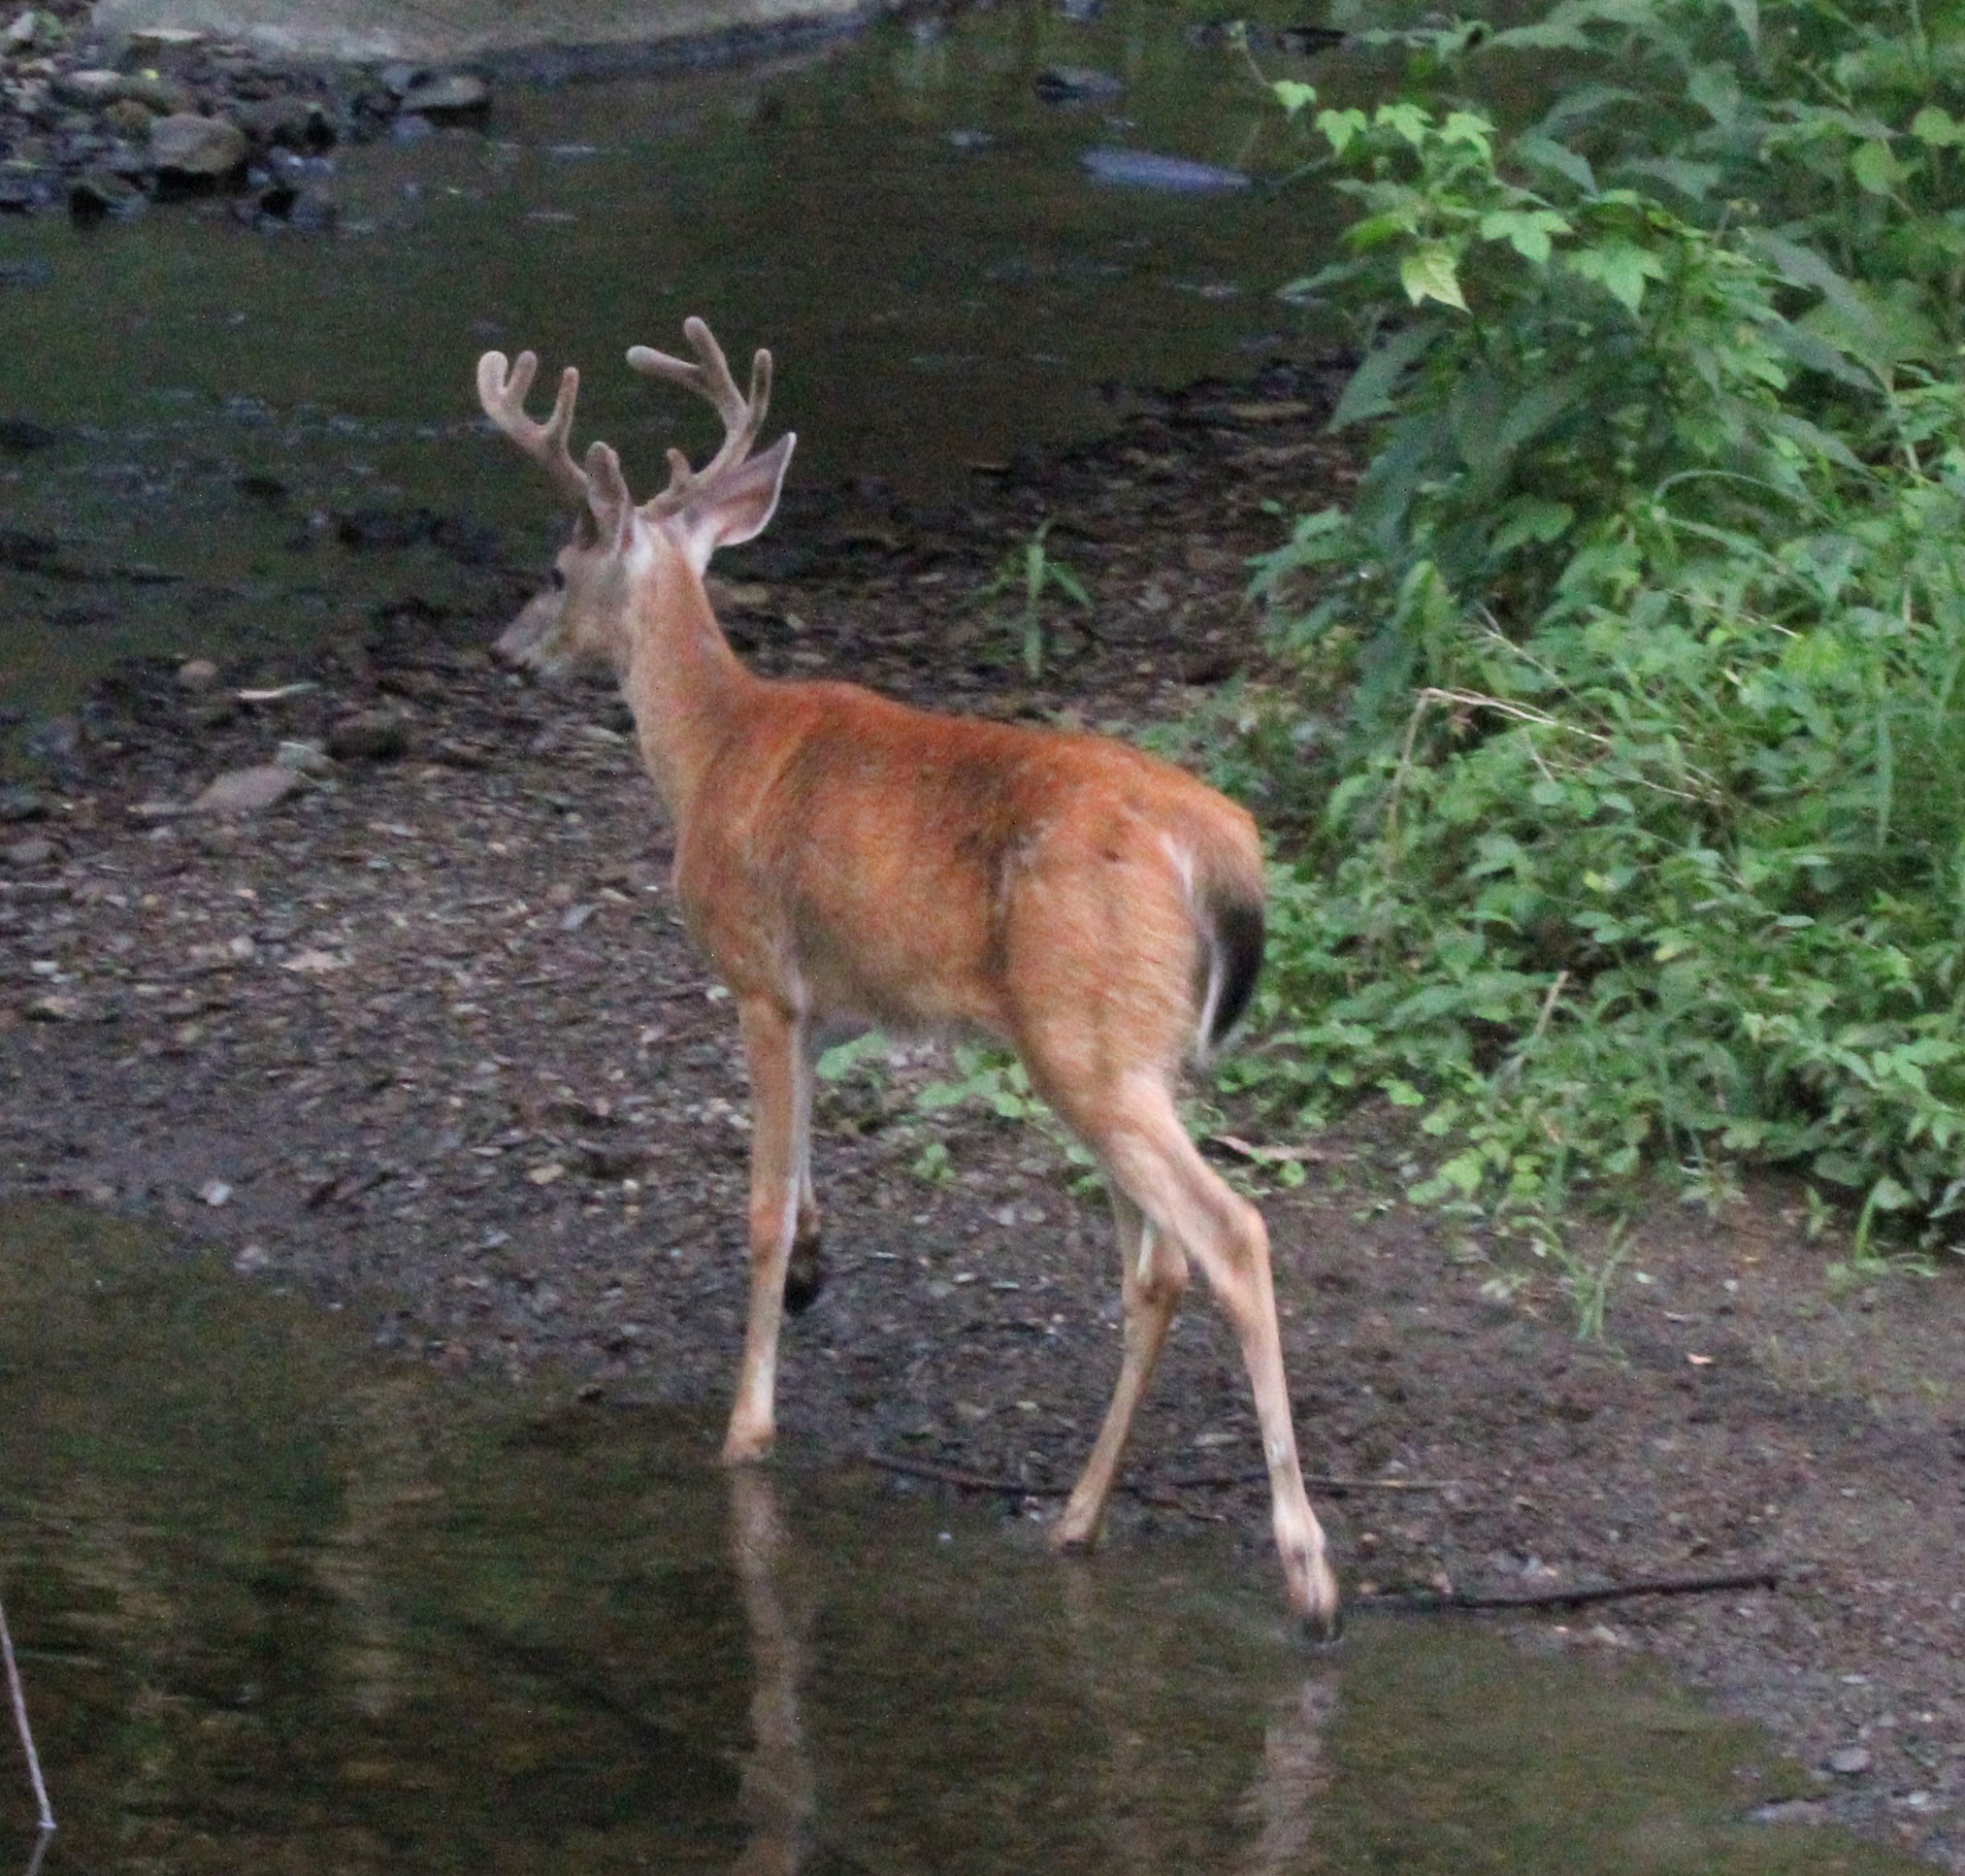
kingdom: Animalia
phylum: Chordata
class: Mammalia
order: Artiodactyla
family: Cervidae
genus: Odocoileus
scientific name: Odocoileus virginianus
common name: White-tailed deer
